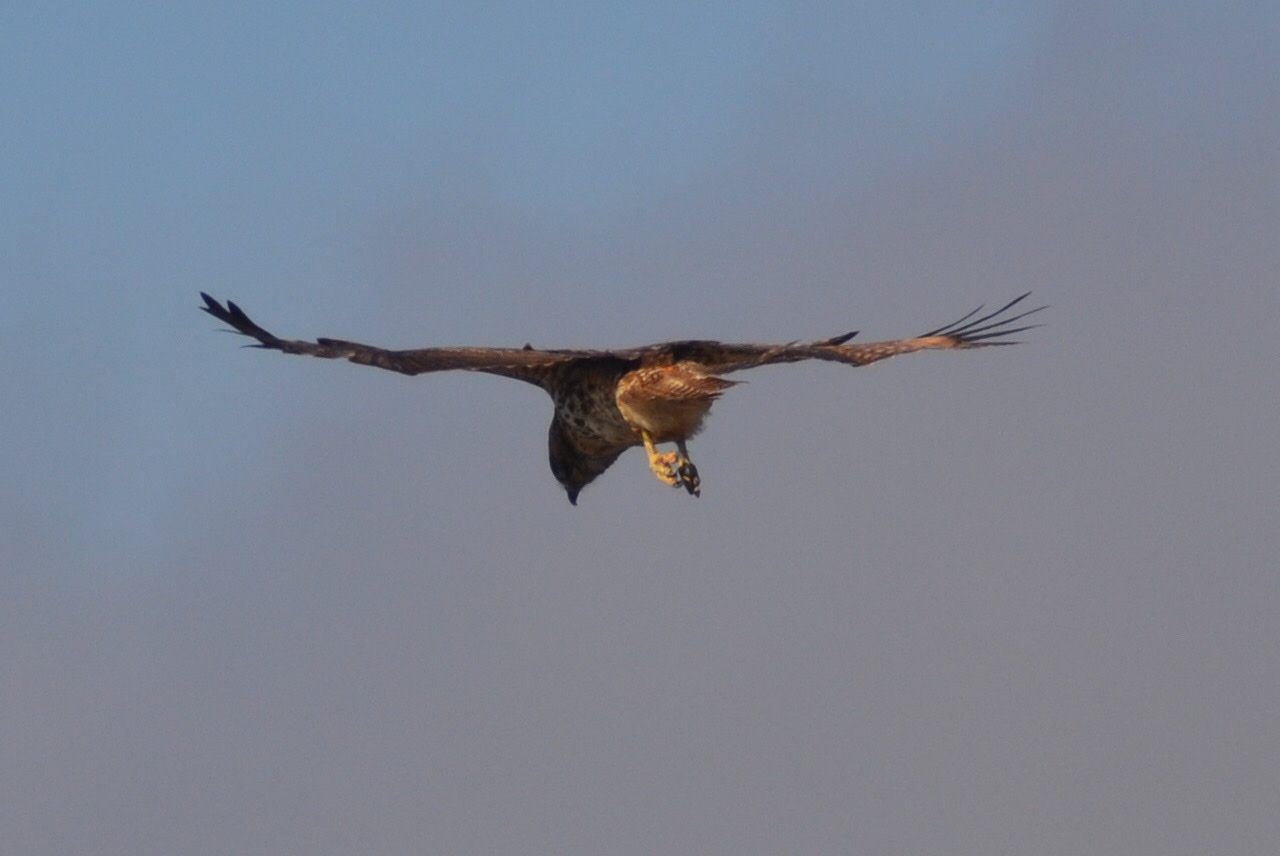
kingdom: Animalia
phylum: Chordata
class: Aves
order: Accipitriformes
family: Accipitridae
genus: Buteo
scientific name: Buteo jamaicensis
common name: Red-tailed hawk
